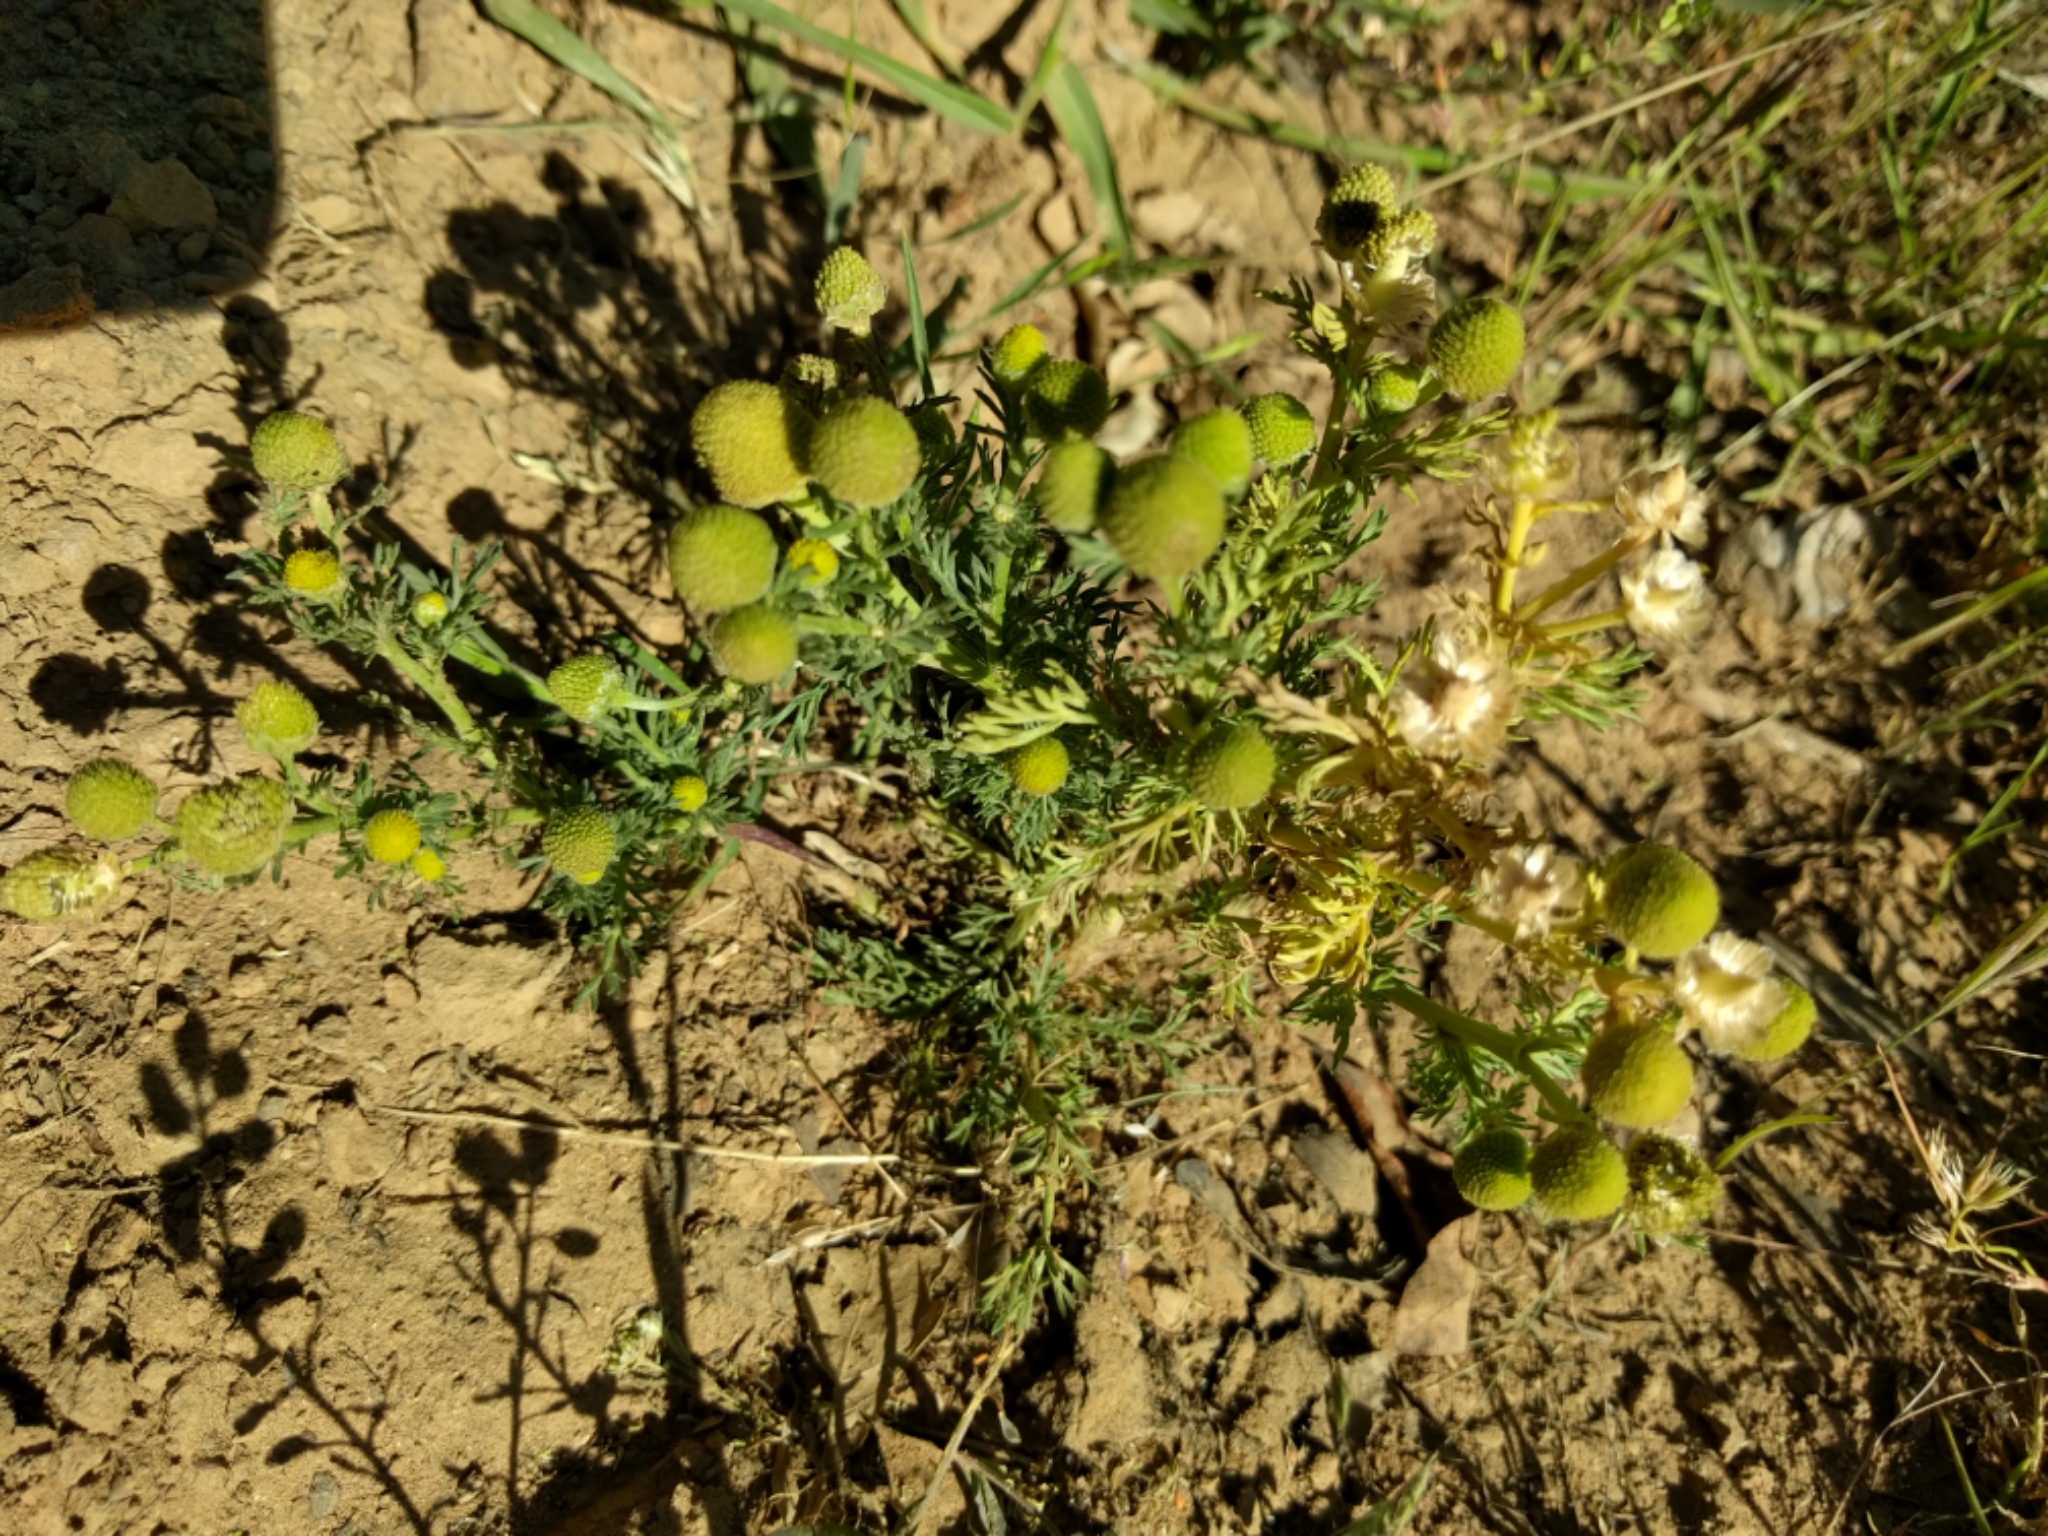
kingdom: Plantae
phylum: Tracheophyta
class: Magnoliopsida
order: Asterales
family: Asteraceae
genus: Matricaria
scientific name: Matricaria discoidea
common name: Disc mayweed
